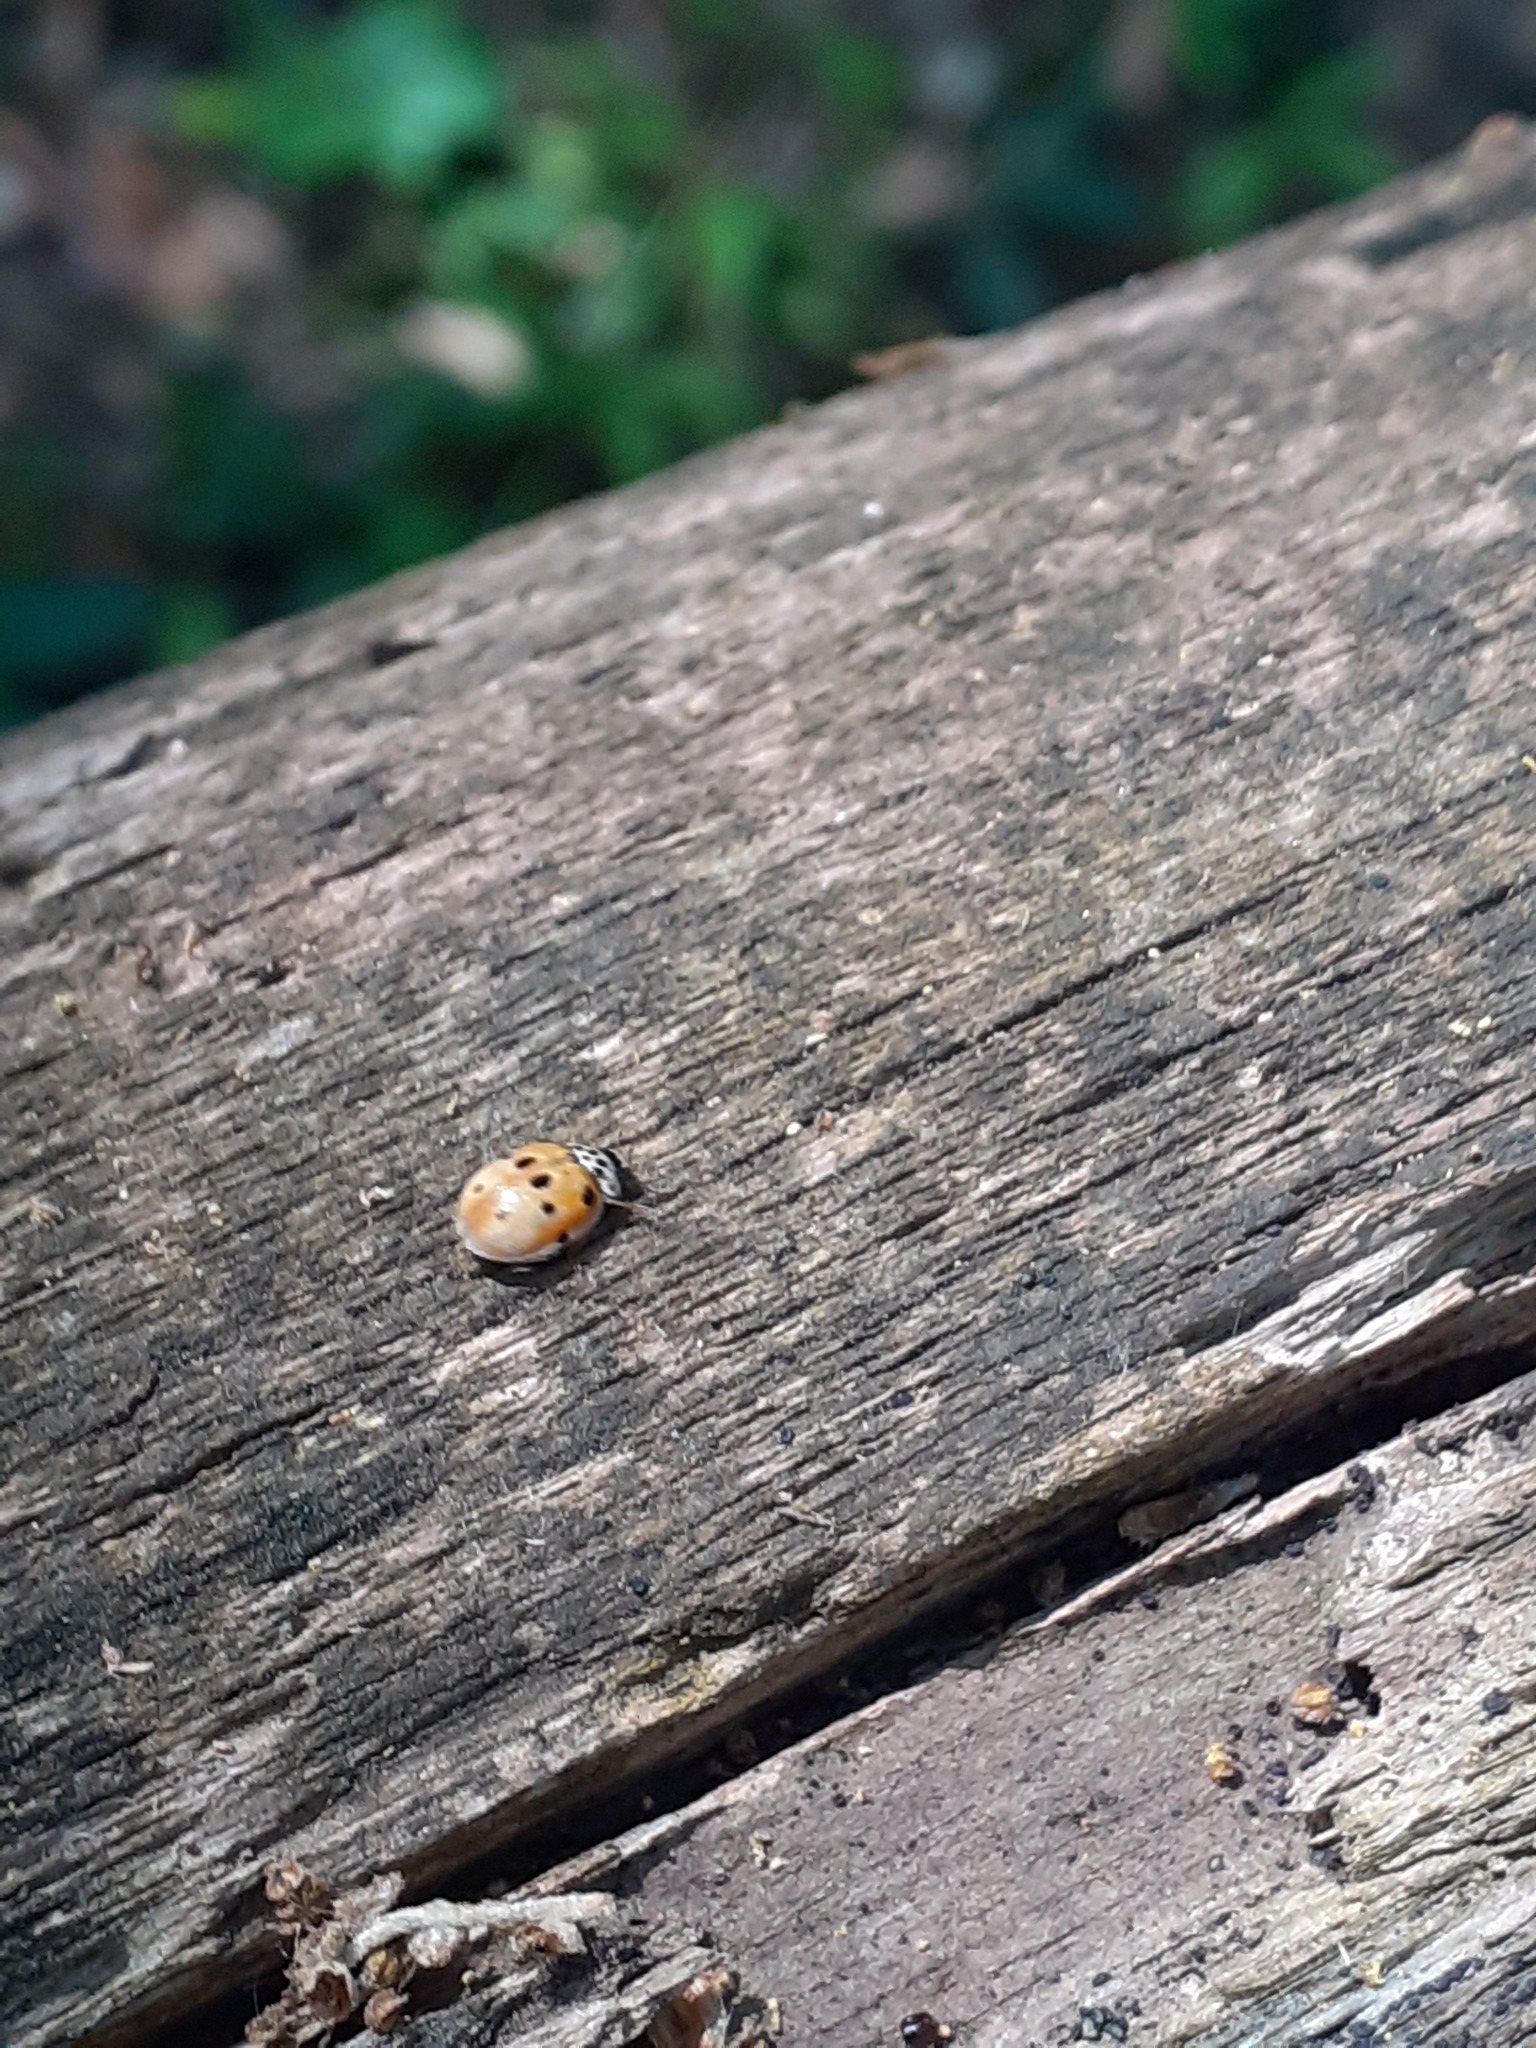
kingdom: Animalia
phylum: Arthropoda
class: Insecta
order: Coleoptera
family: Coccinellidae
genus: Adalia
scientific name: Adalia decempunctata
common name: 10-spot ladybird
